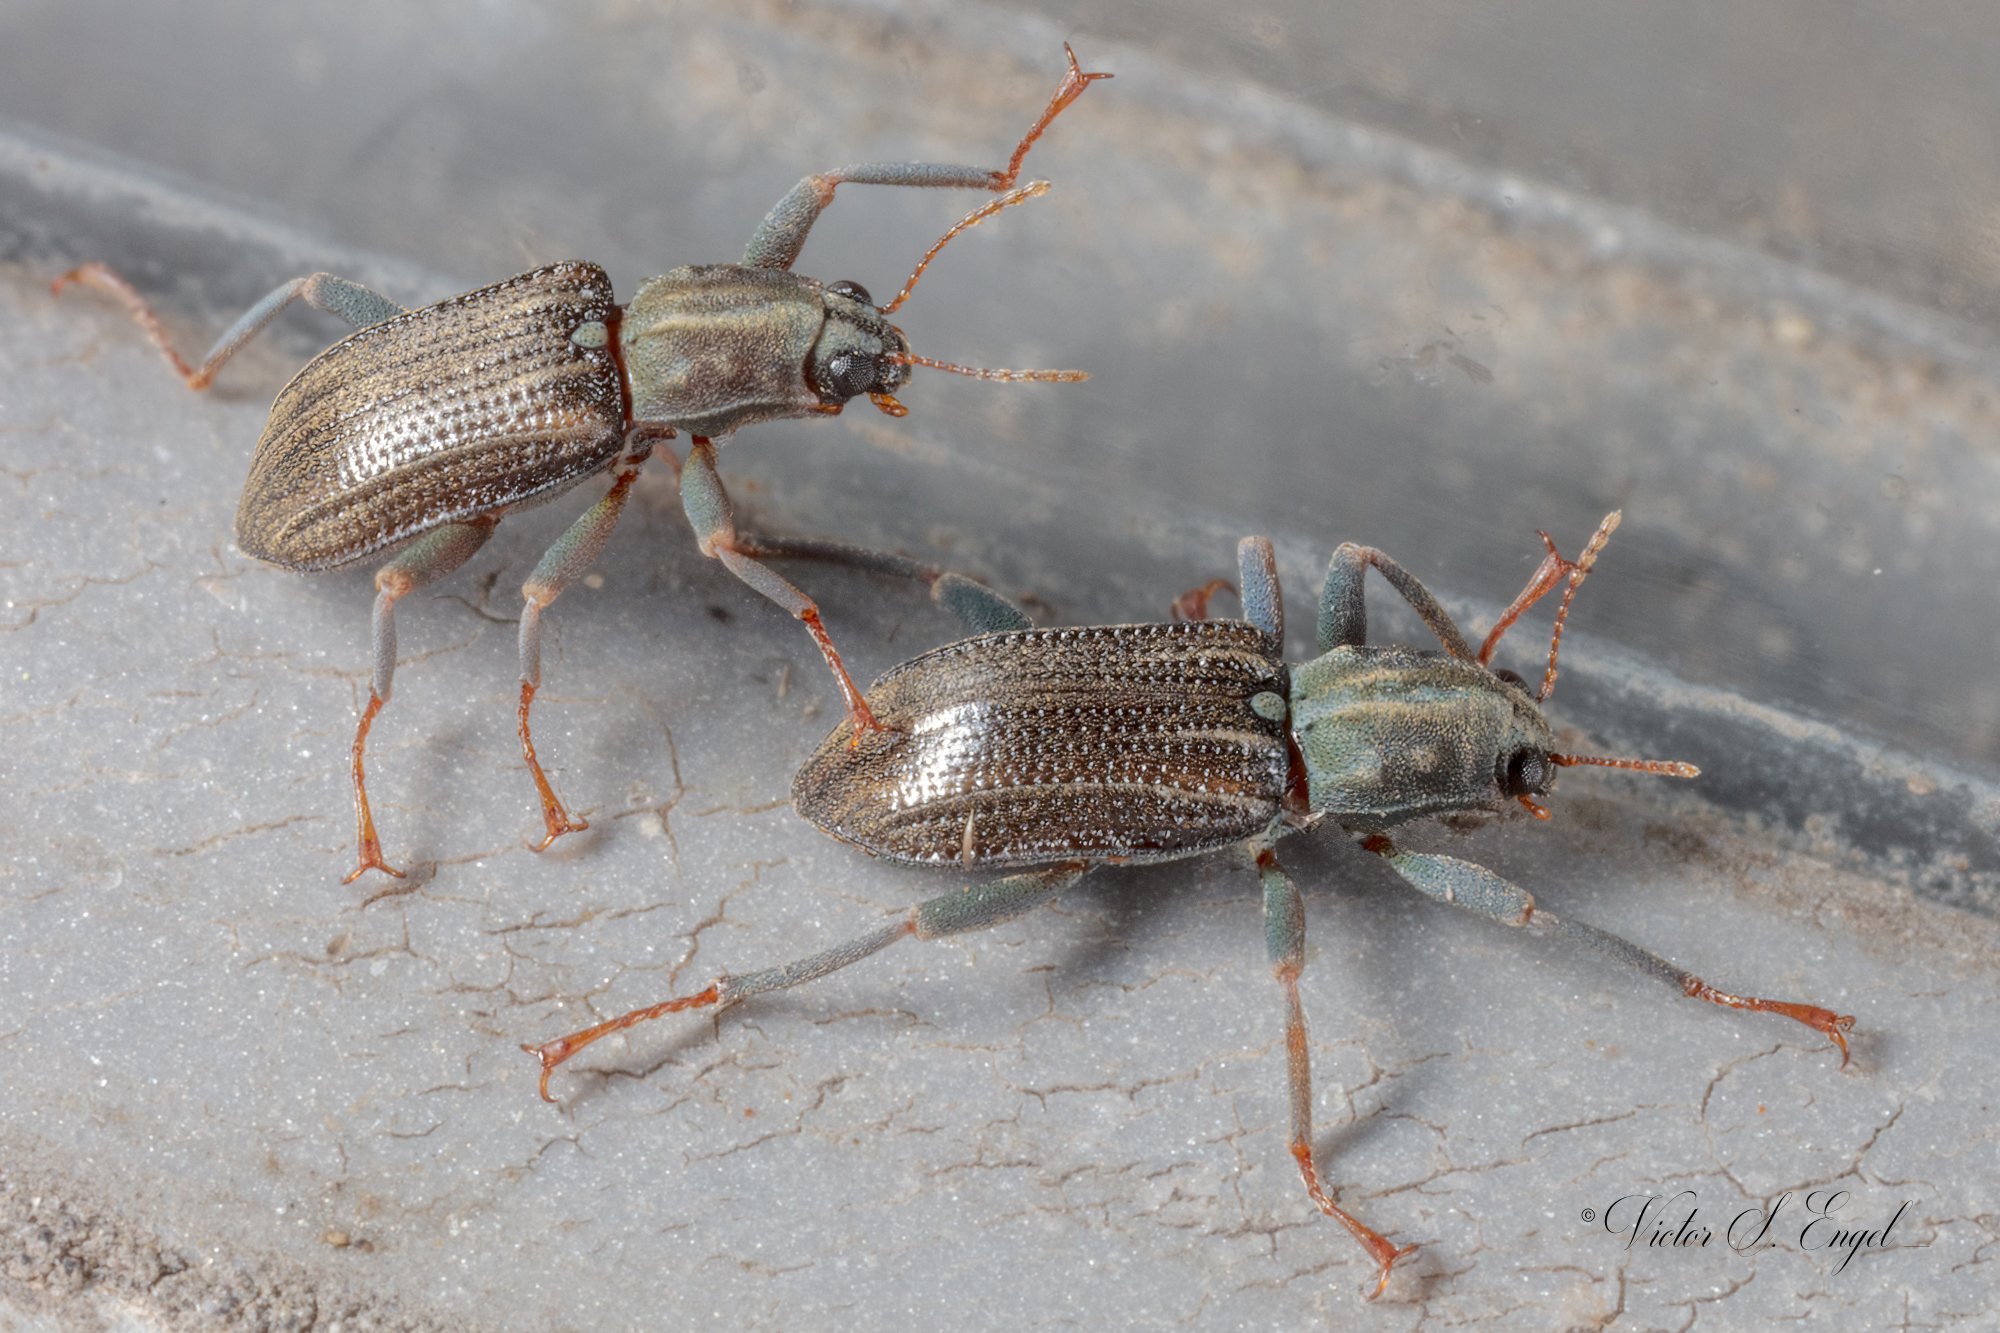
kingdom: Animalia
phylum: Arthropoda
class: Insecta
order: Coleoptera
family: Elmidae
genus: Stenelmis
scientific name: Stenelmis
